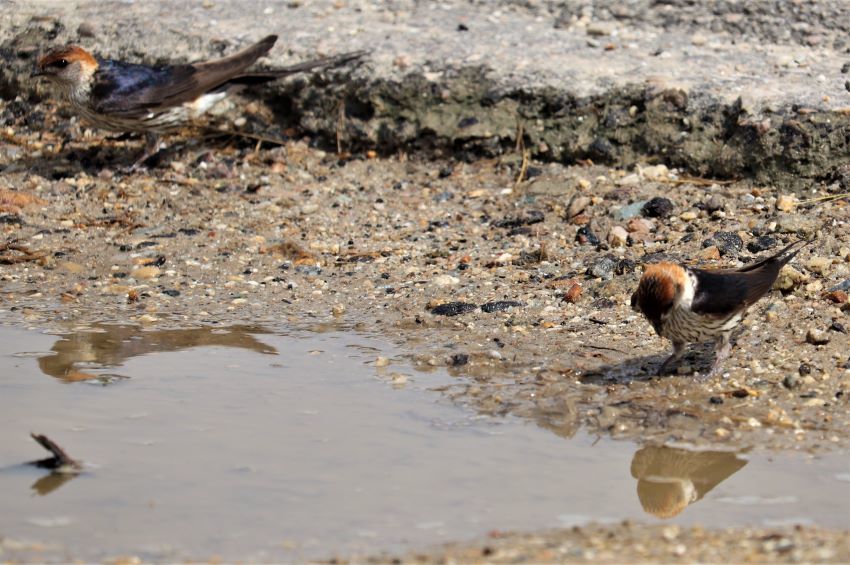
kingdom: Animalia
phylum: Chordata
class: Aves
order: Passeriformes
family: Hirundinidae
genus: Cecropis
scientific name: Cecropis cucullata
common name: Greater striped-swallow
